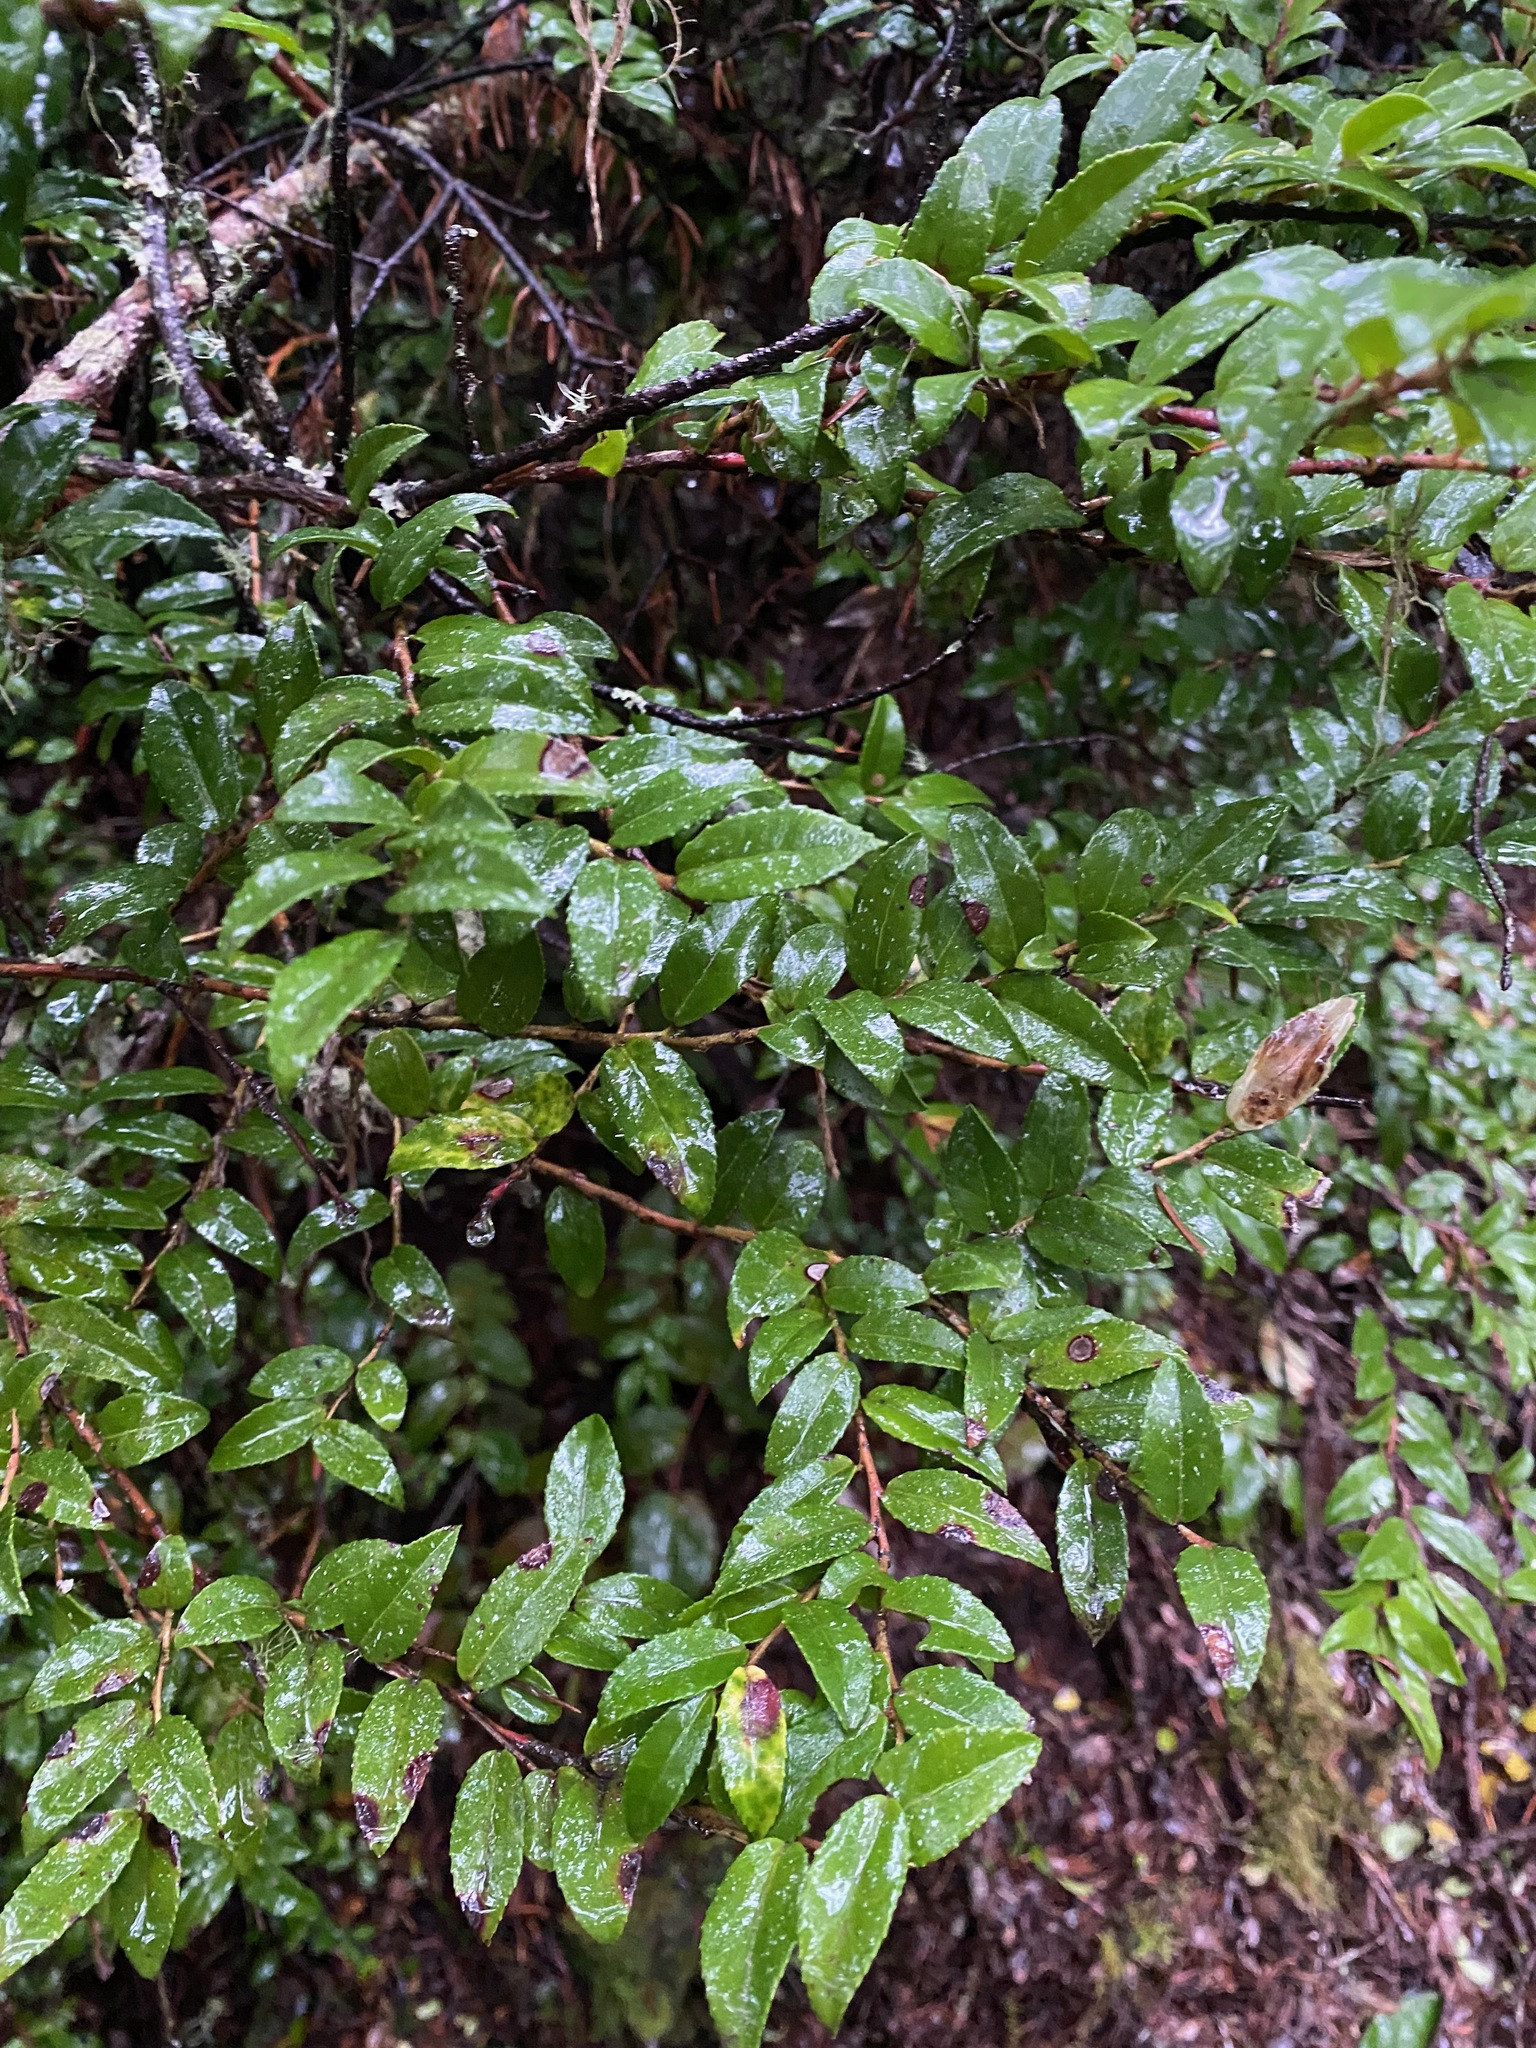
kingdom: Plantae
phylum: Tracheophyta
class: Magnoliopsida
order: Ericales
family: Ericaceae
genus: Vaccinium
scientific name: Vaccinium ovatum
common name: California-huckleberry
